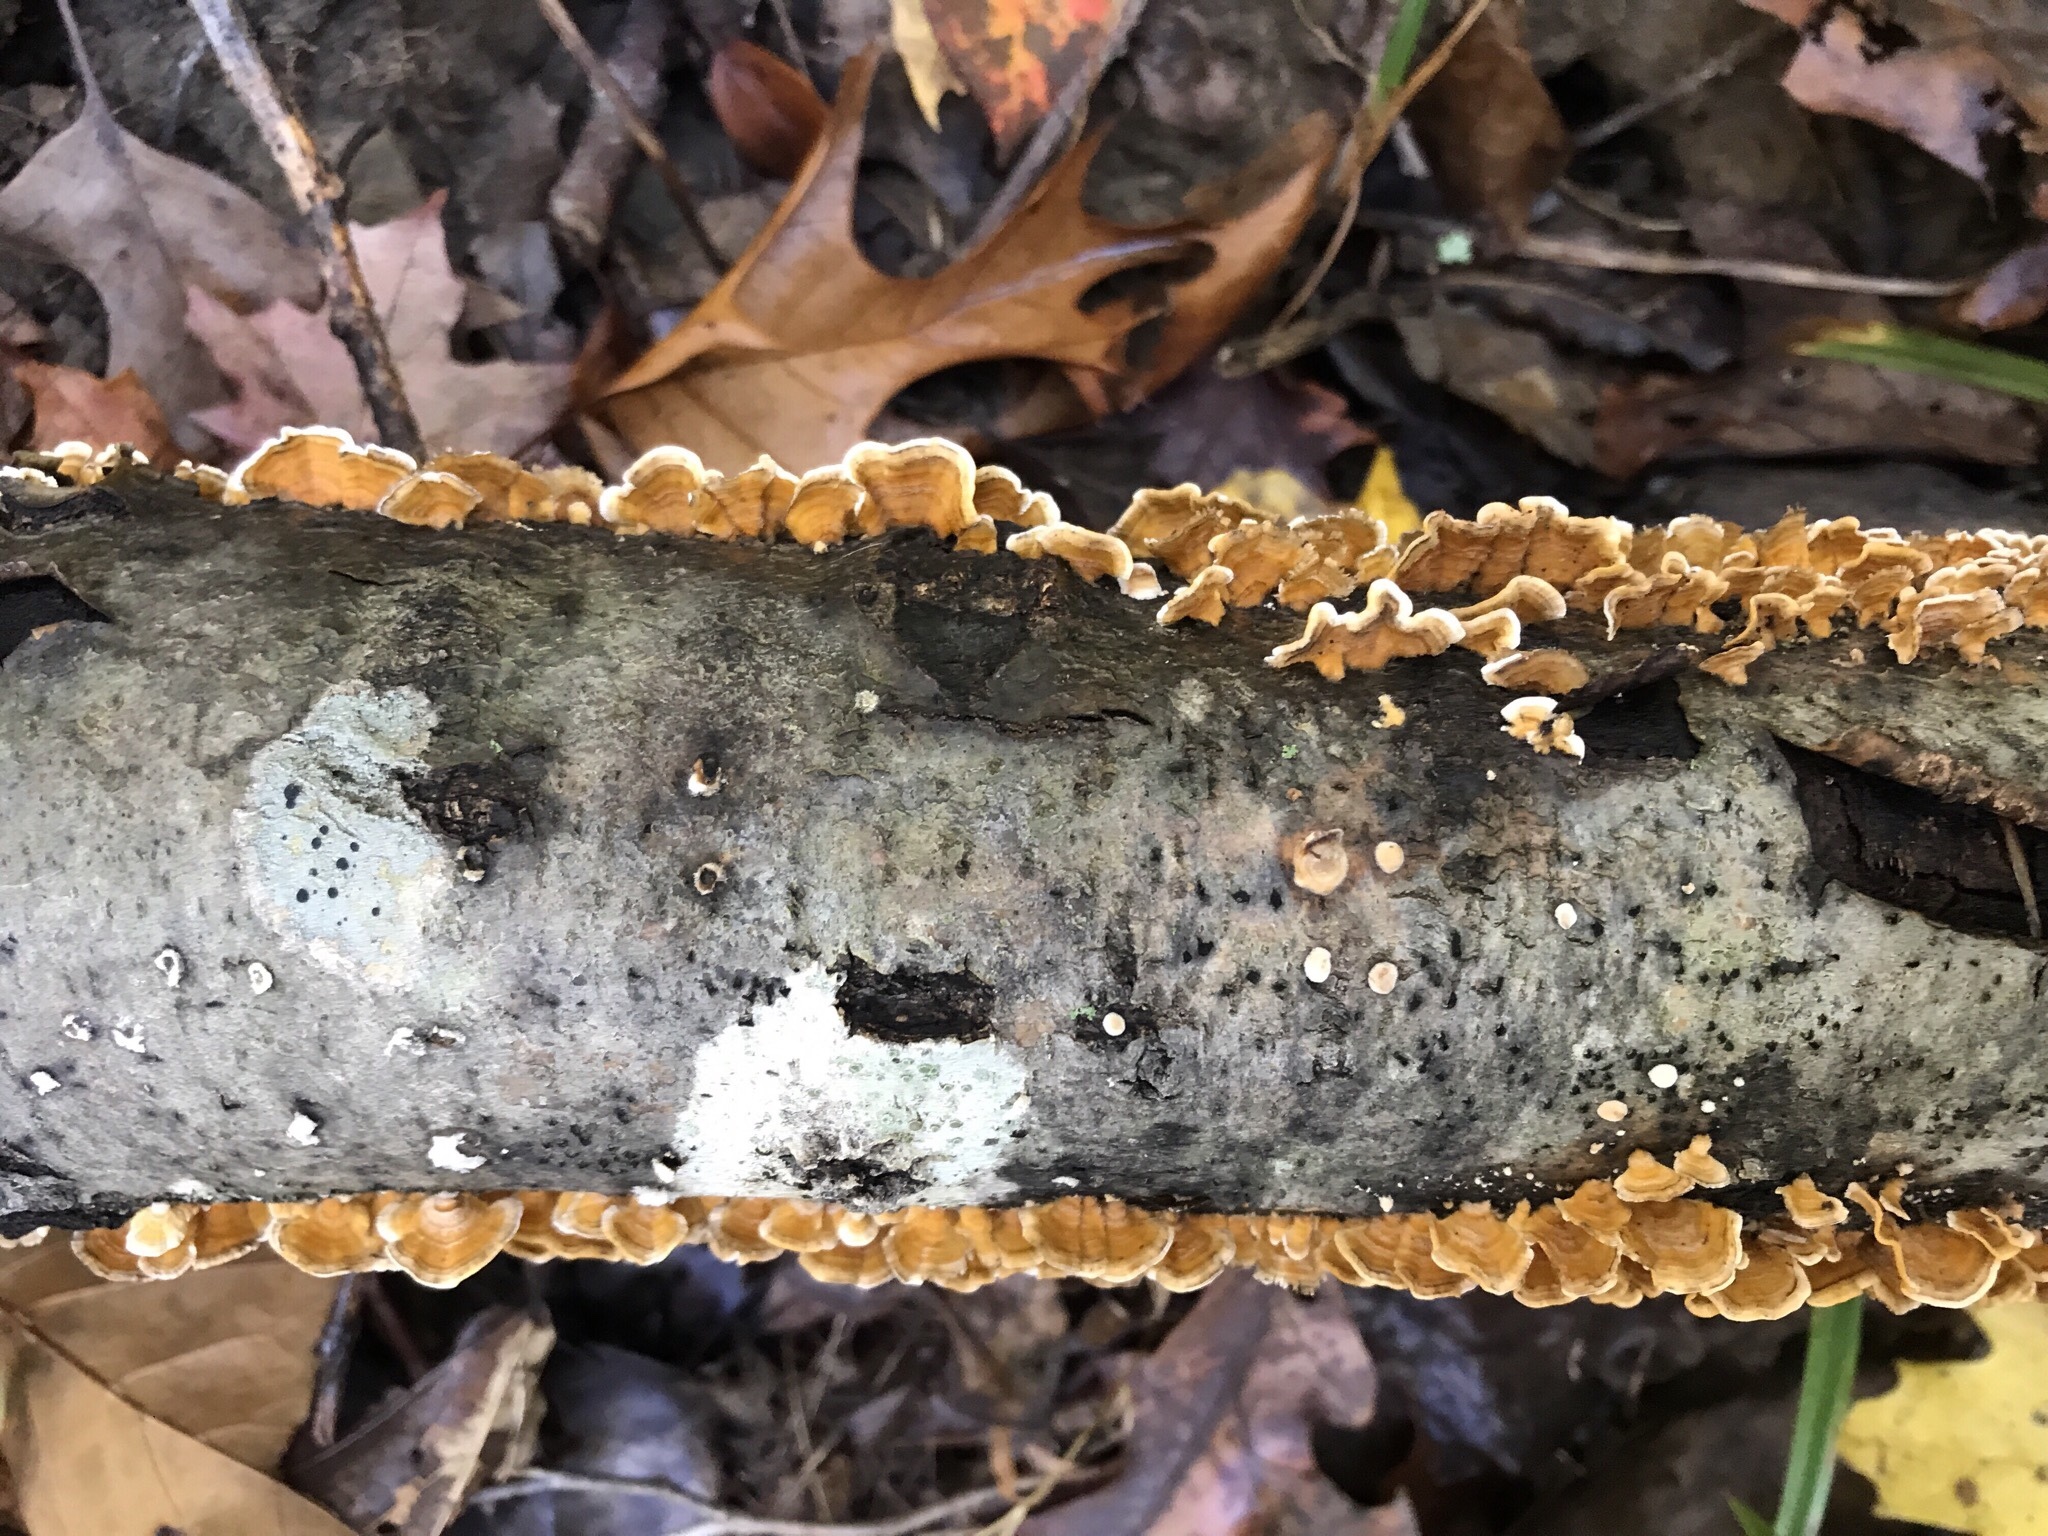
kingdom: Fungi
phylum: Basidiomycota
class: Agaricomycetes
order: Russulales
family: Stereaceae
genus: Stereum
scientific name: Stereum complicatum
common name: Crowded parchment
